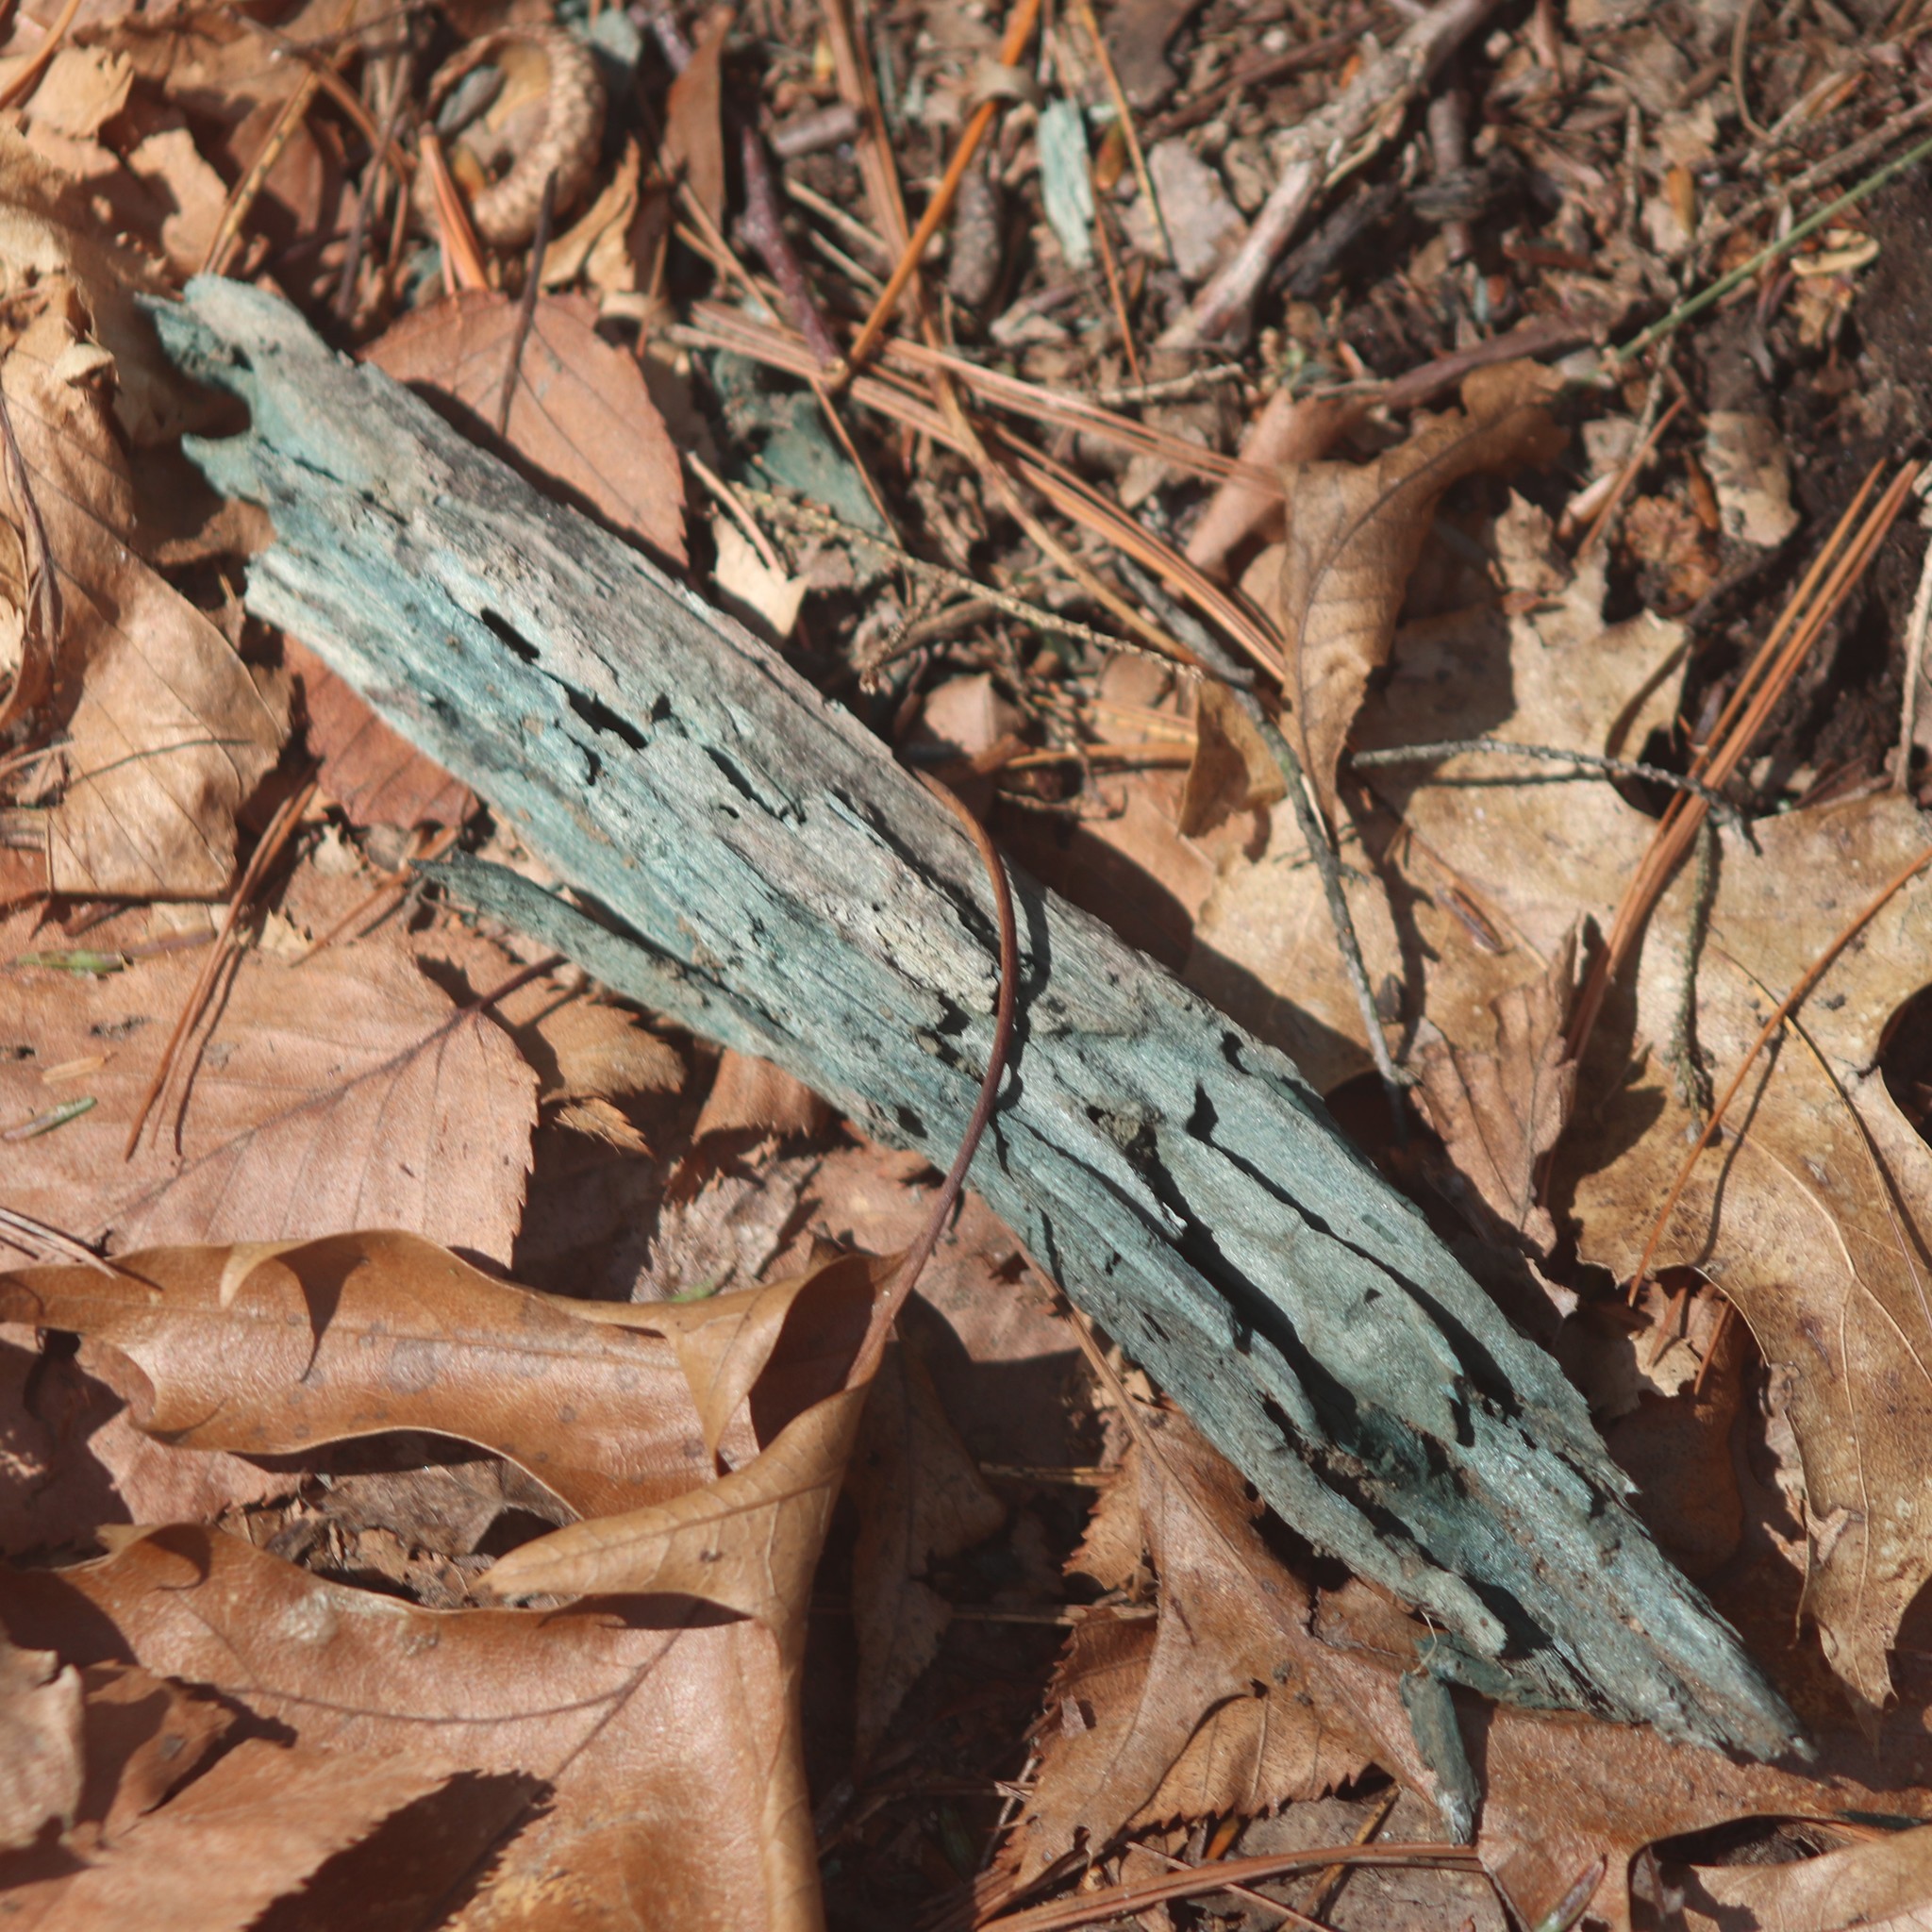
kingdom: Fungi
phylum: Ascomycota
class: Leotiomycetes
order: Helotiales
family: Chlorociboriaceae
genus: Chlorociboria
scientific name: Chlorociboria
